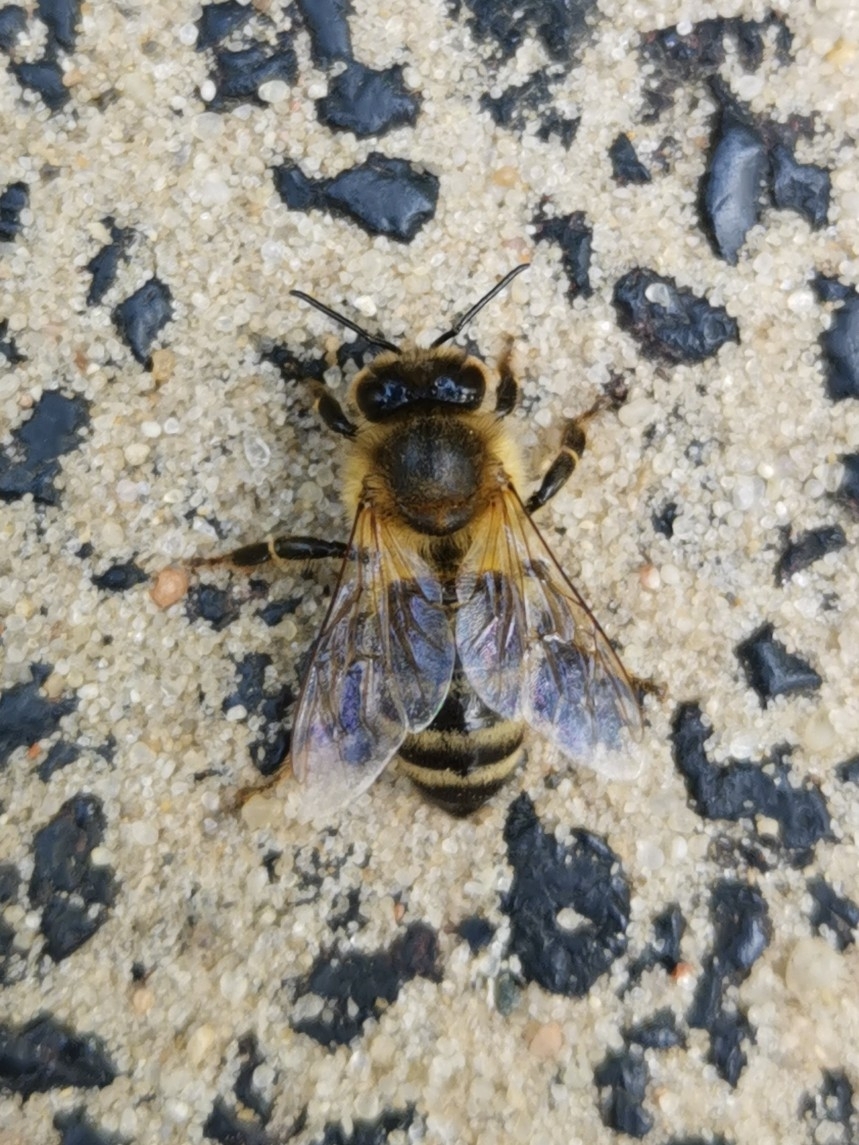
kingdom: Animalia
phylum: Arthropoda
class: Insecta
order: Hymenoptera
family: Apidae
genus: Apis
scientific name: Apis mellifera
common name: Honey bee
